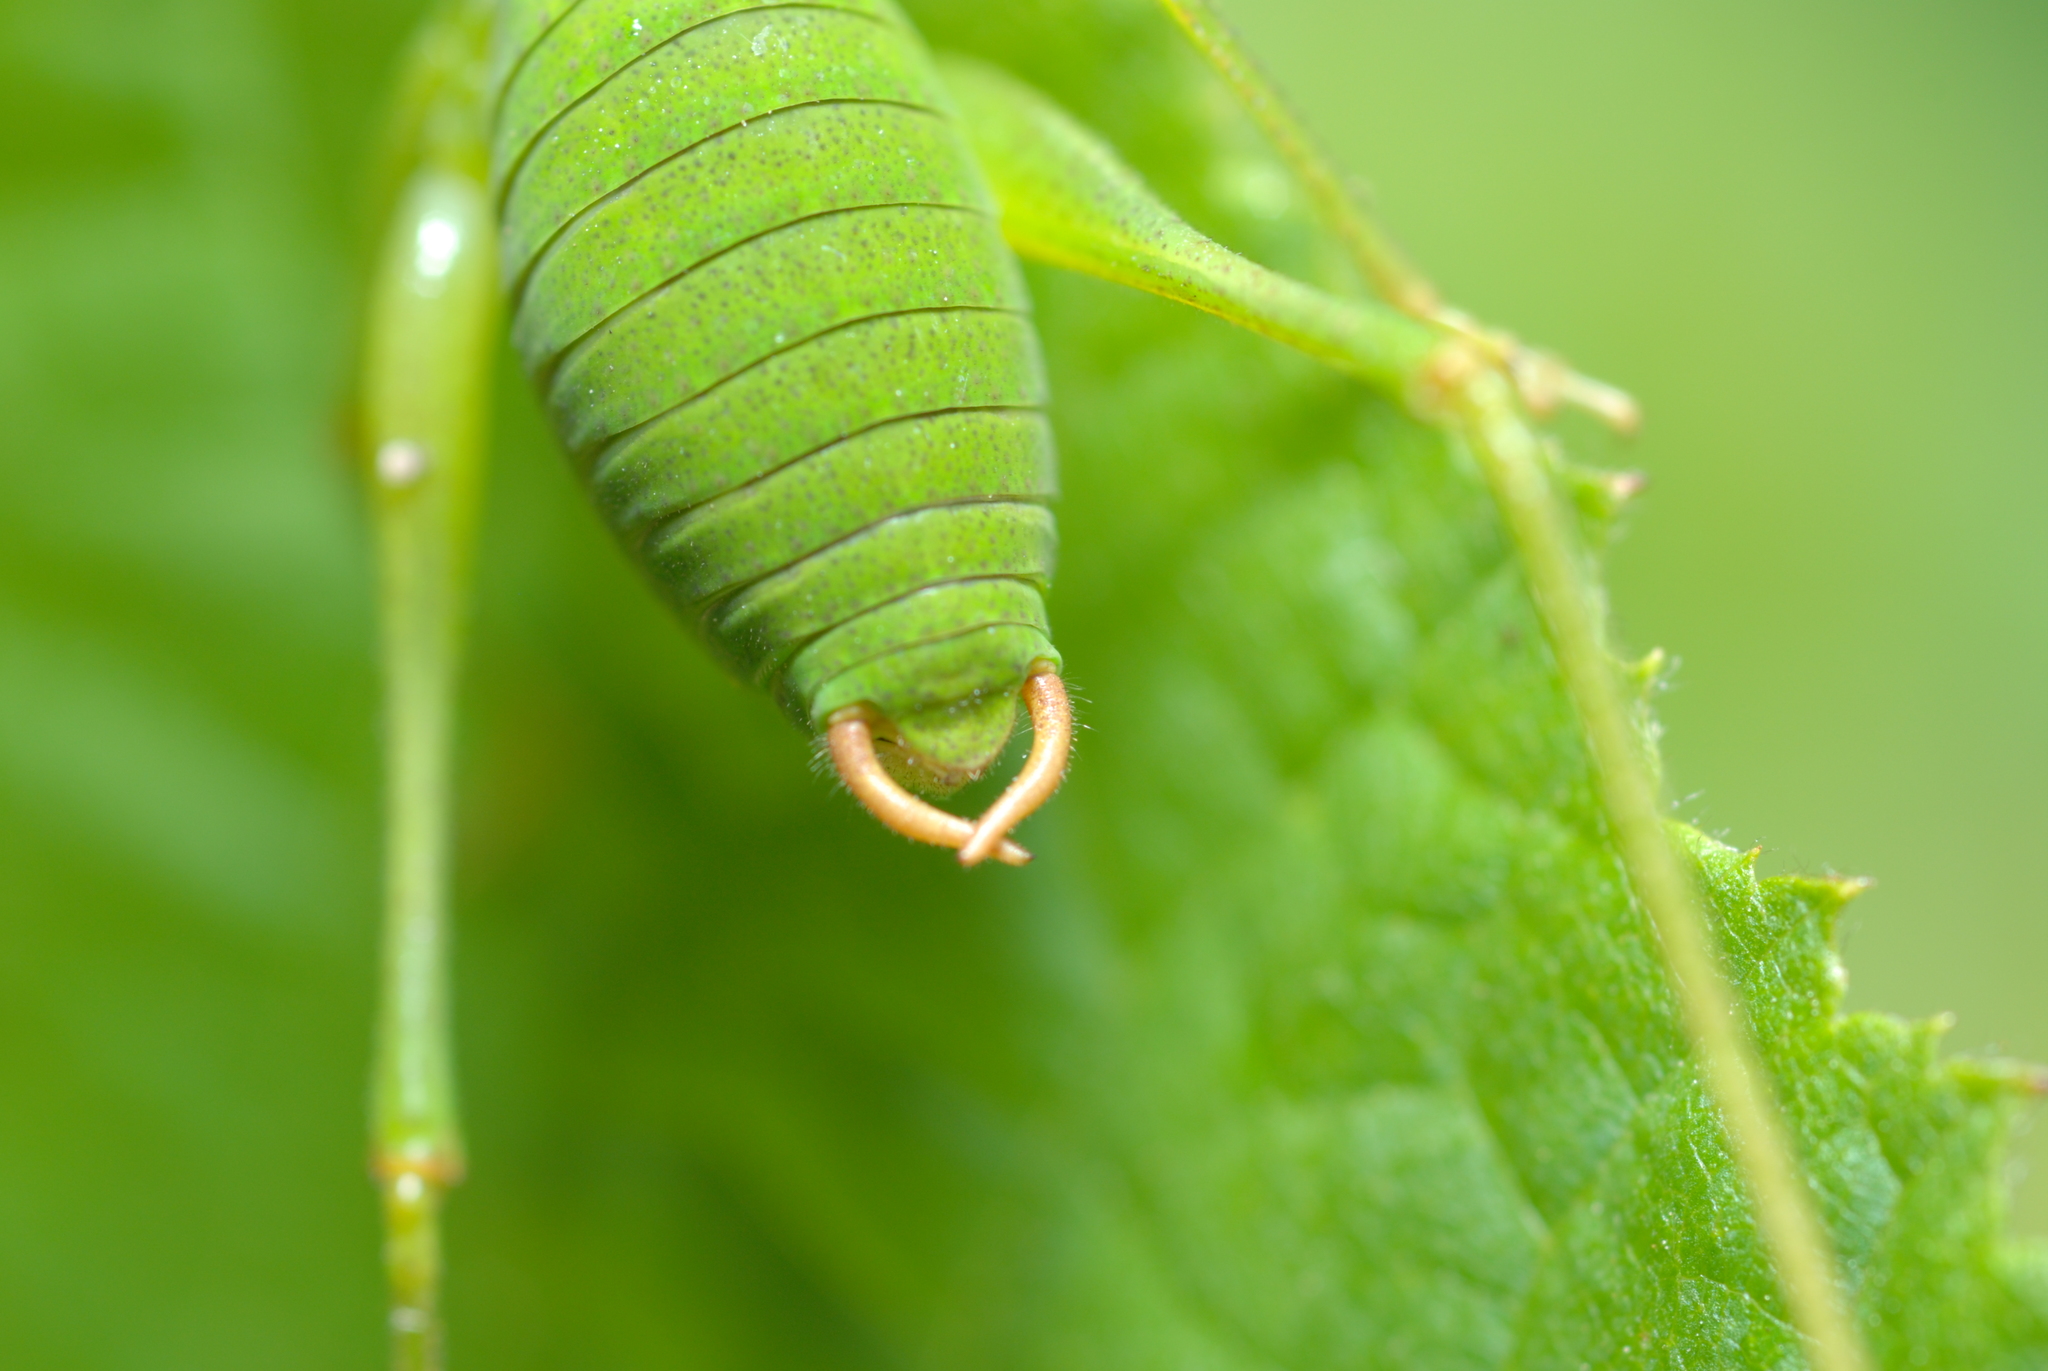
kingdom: Animalia
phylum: Arthropoda
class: Insecta
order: Orthoptera
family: Tettigoniidae
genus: Barbitistes
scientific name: Barbitistes serricauda
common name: Saw-tailed bush-cricket
